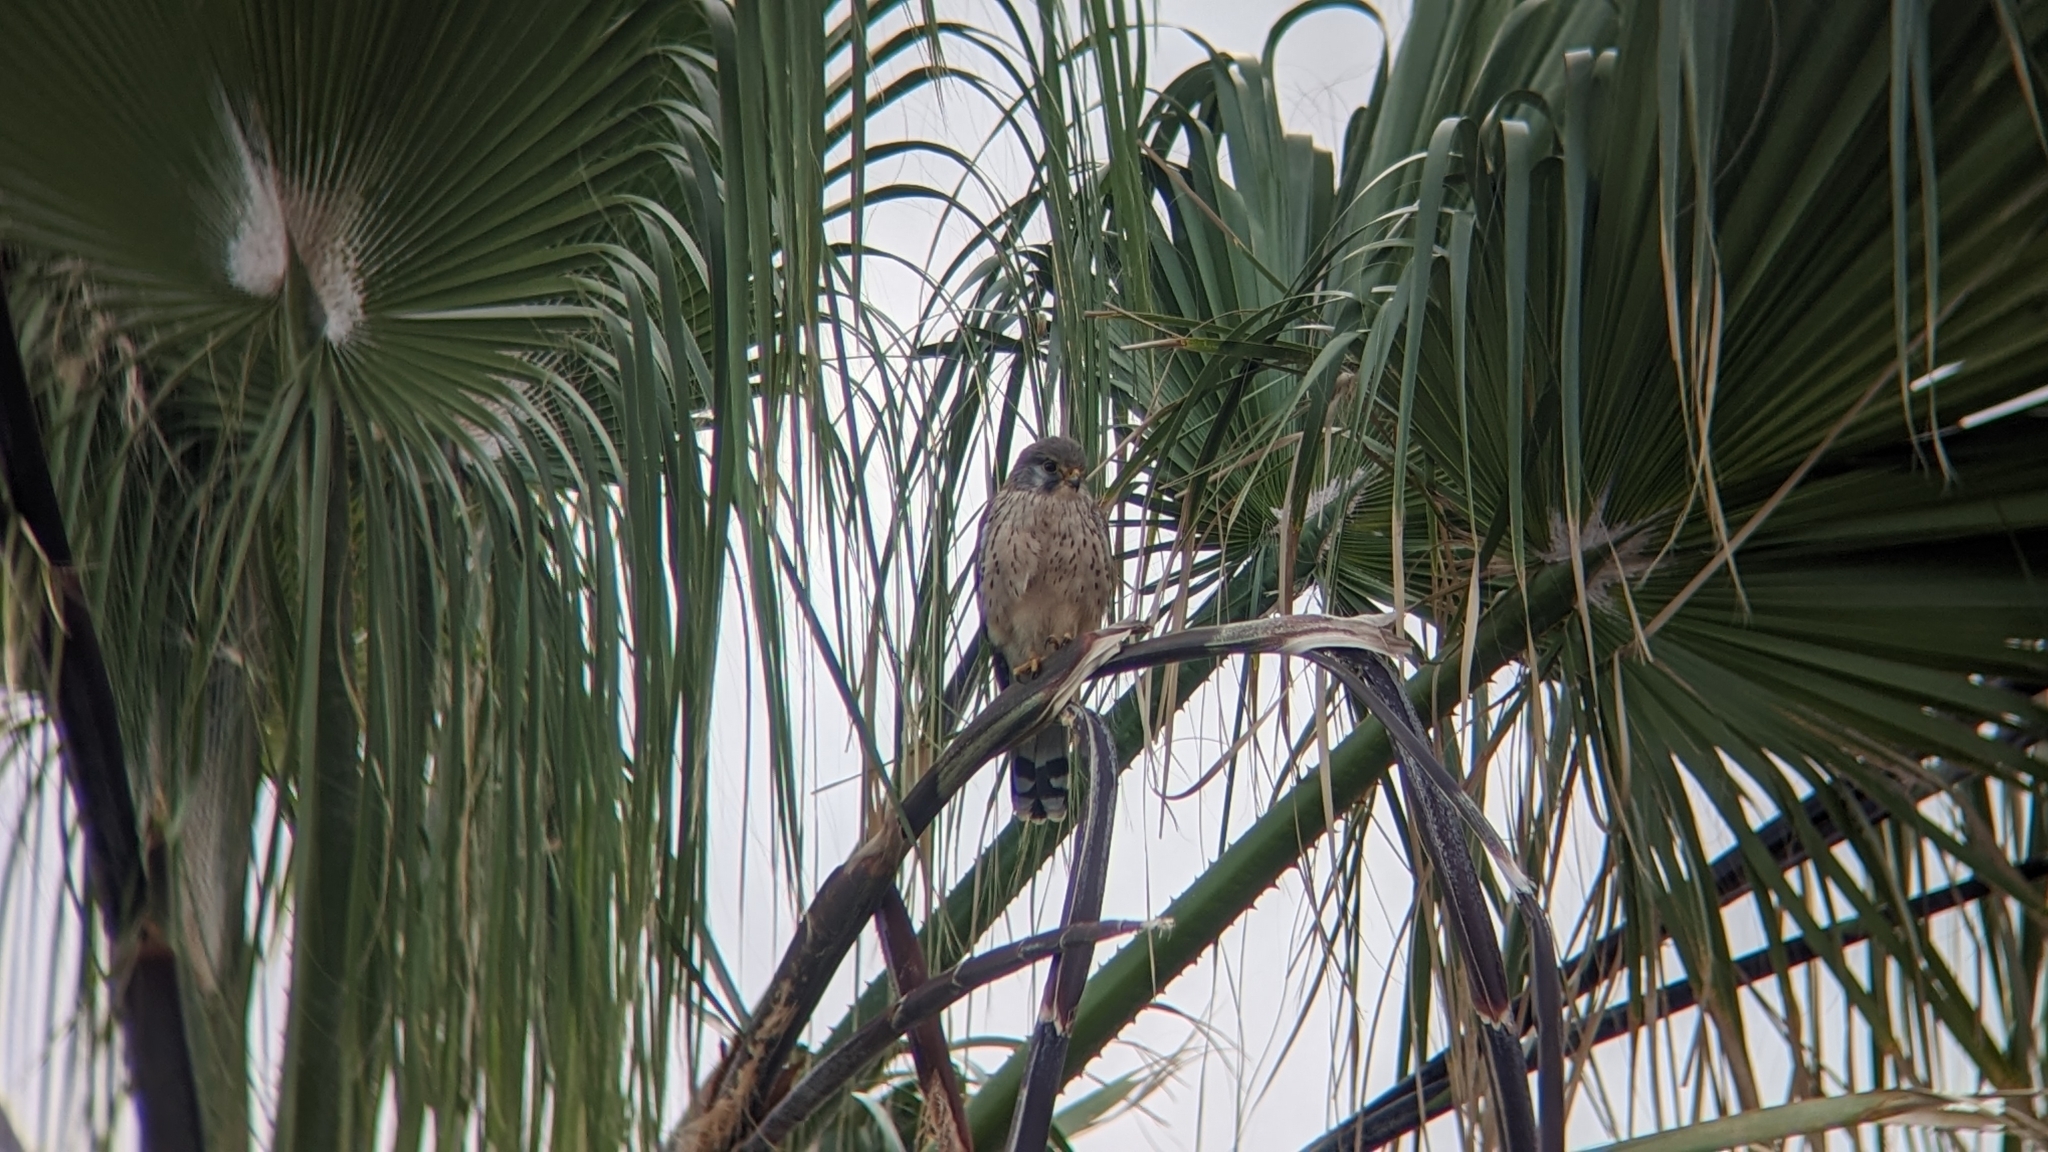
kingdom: Animalia
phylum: Chordata
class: Aves
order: Falconiformes
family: Falconidae
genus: Falco
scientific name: Falco tinnunculus
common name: Common kestrel
